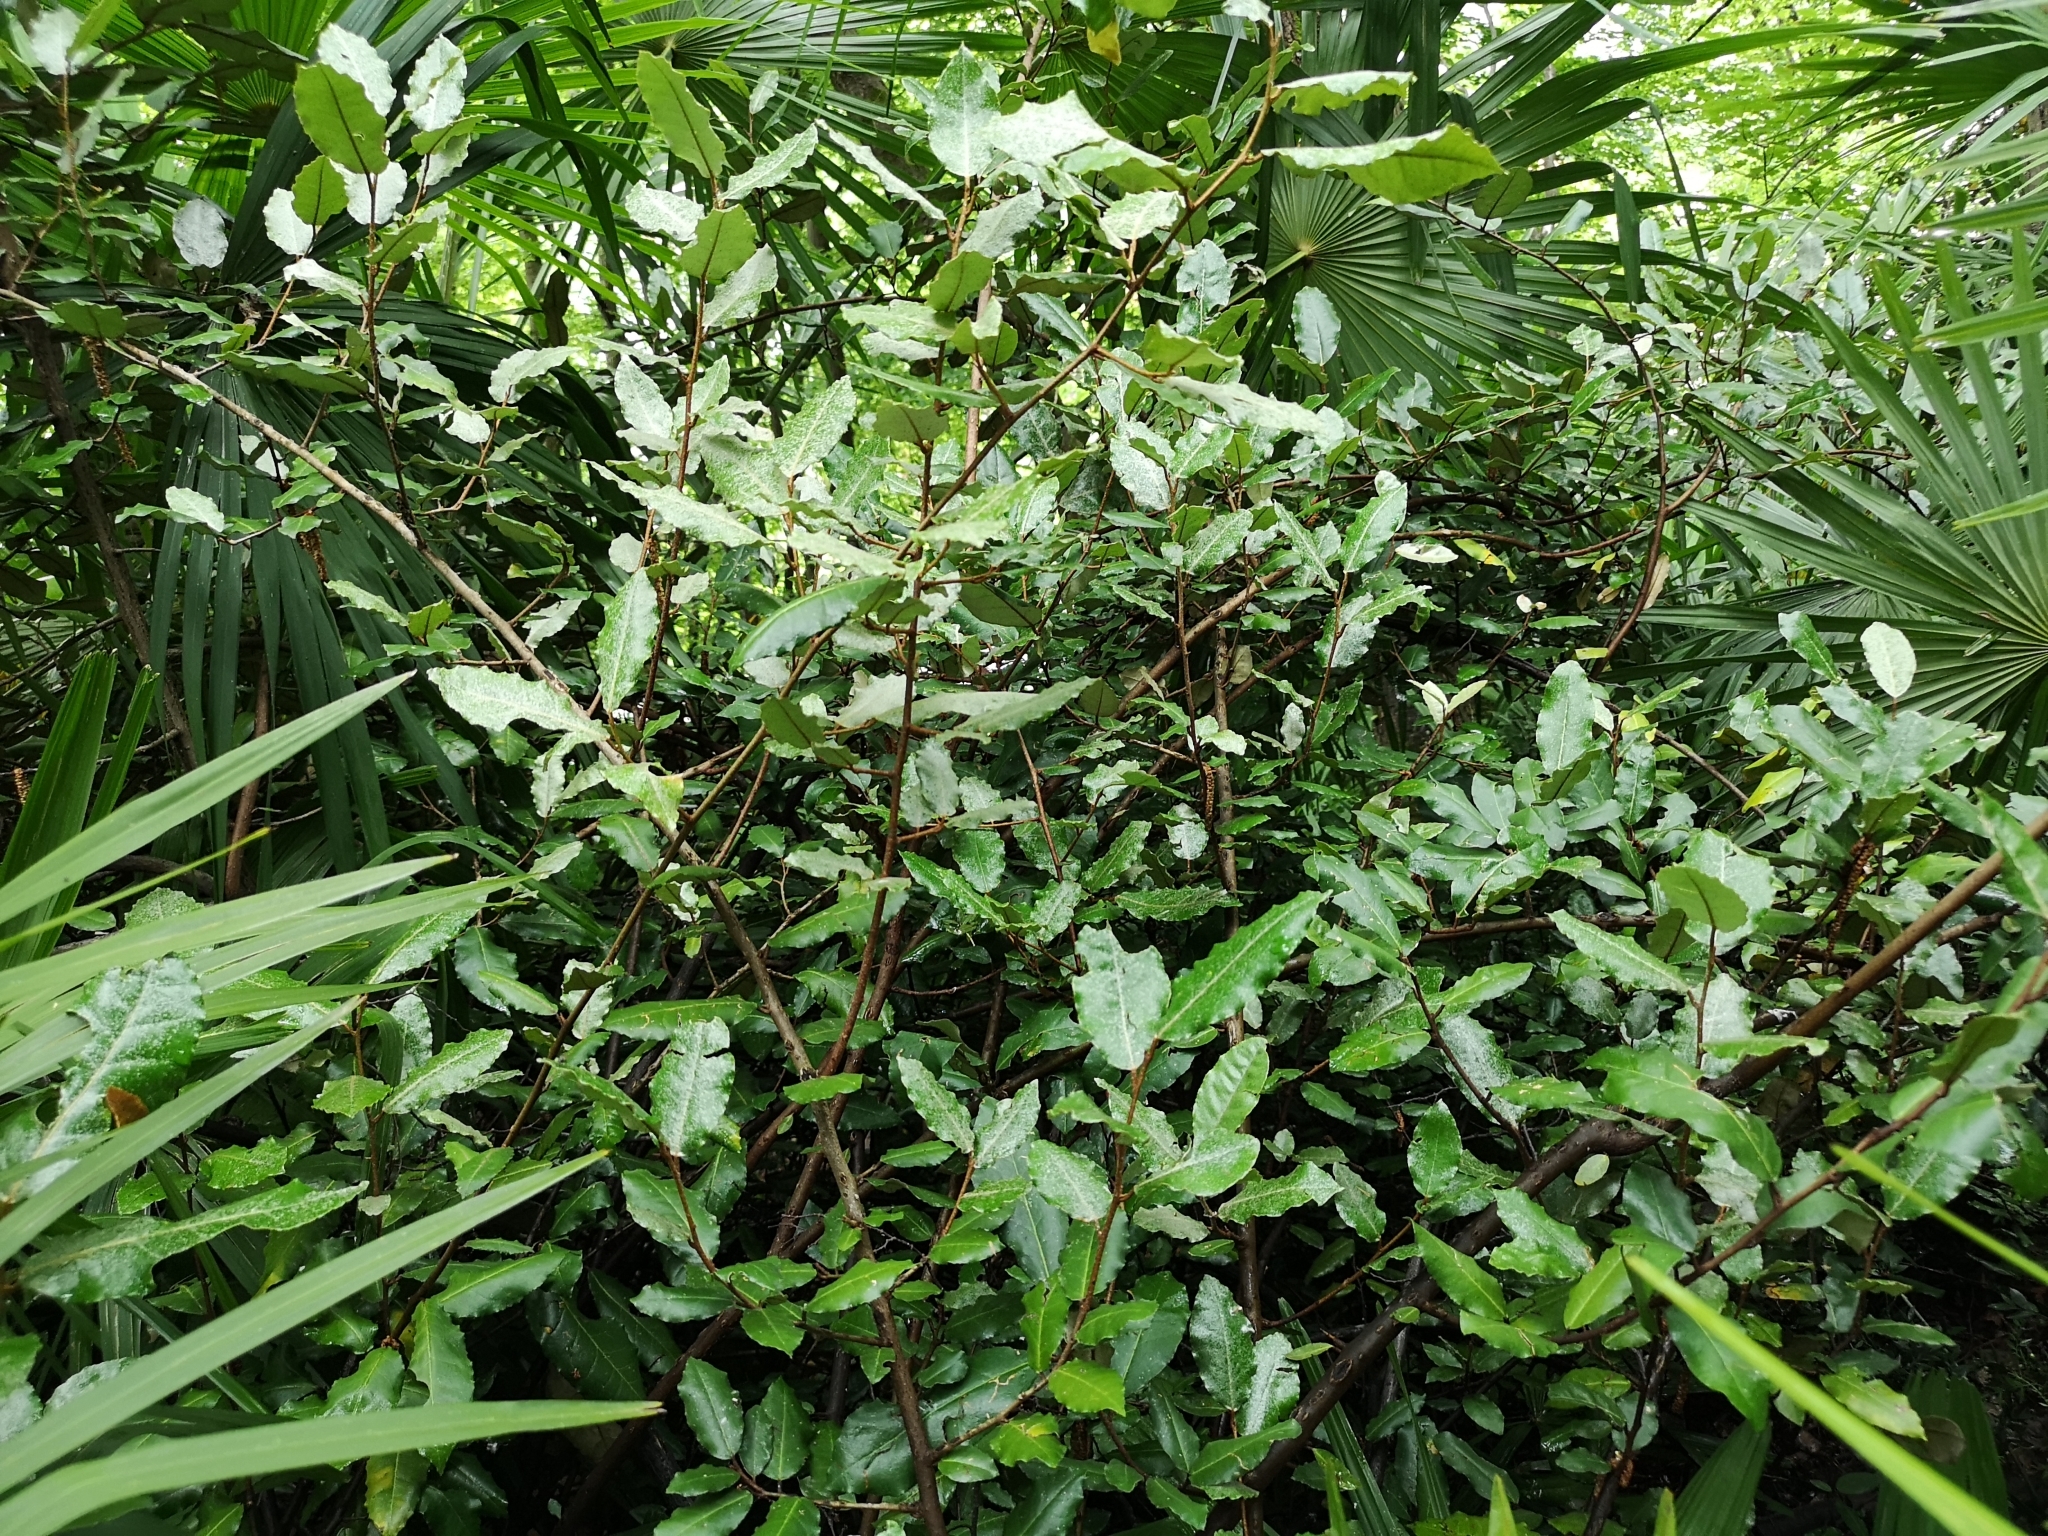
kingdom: Plantae
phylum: Tracheophyta
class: Magnoliopsida
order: Rosales
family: Elaeagnaceae
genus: Elaeagnus
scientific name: Elaeagnus pungens
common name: Spiny oleaster
